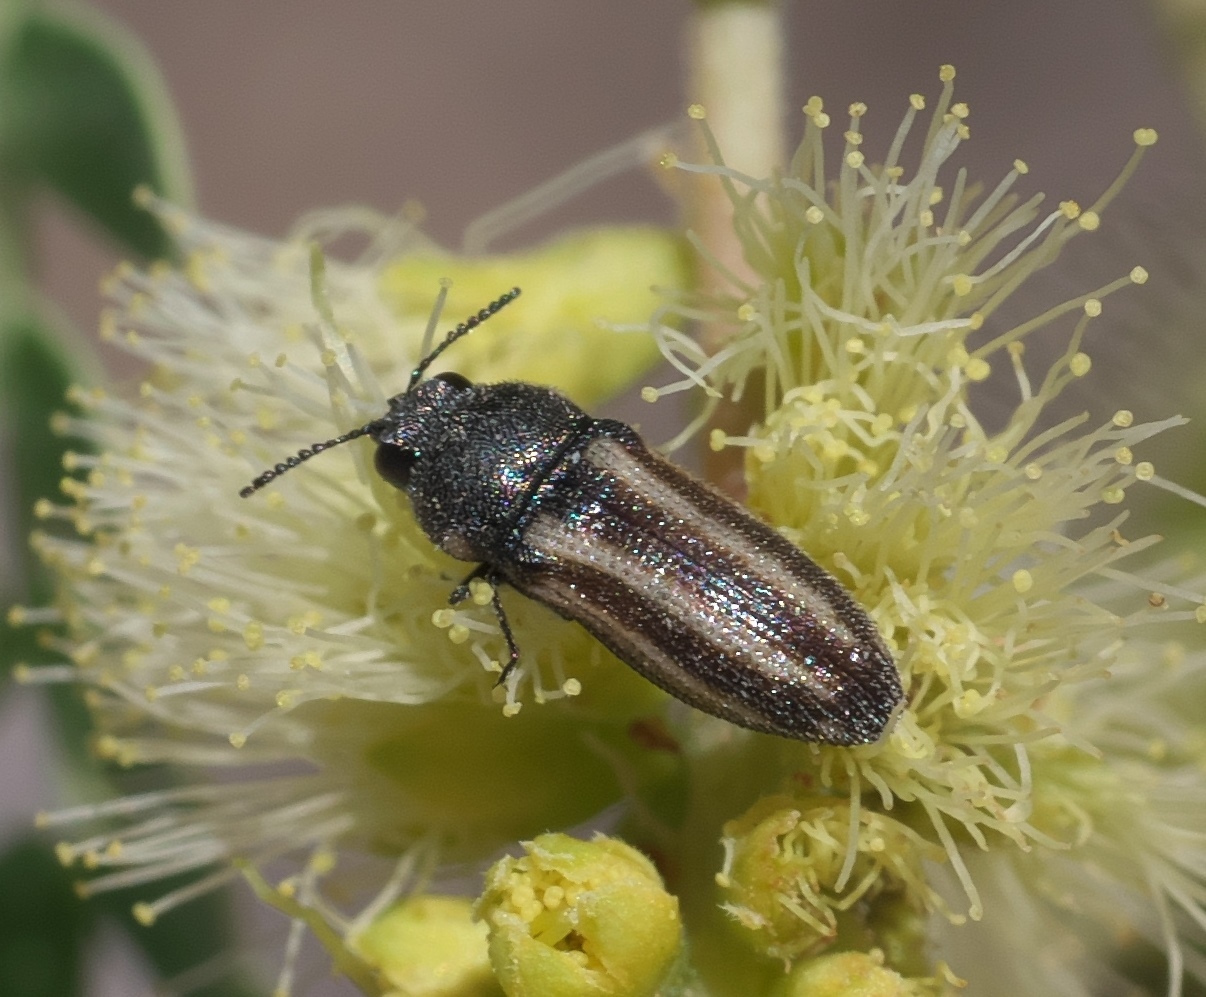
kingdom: Animalia
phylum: Arthropoda
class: Insecta
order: Coleoptera
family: Buprestidae
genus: Acmaeodera
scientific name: Acmaeodera quadrivittata
